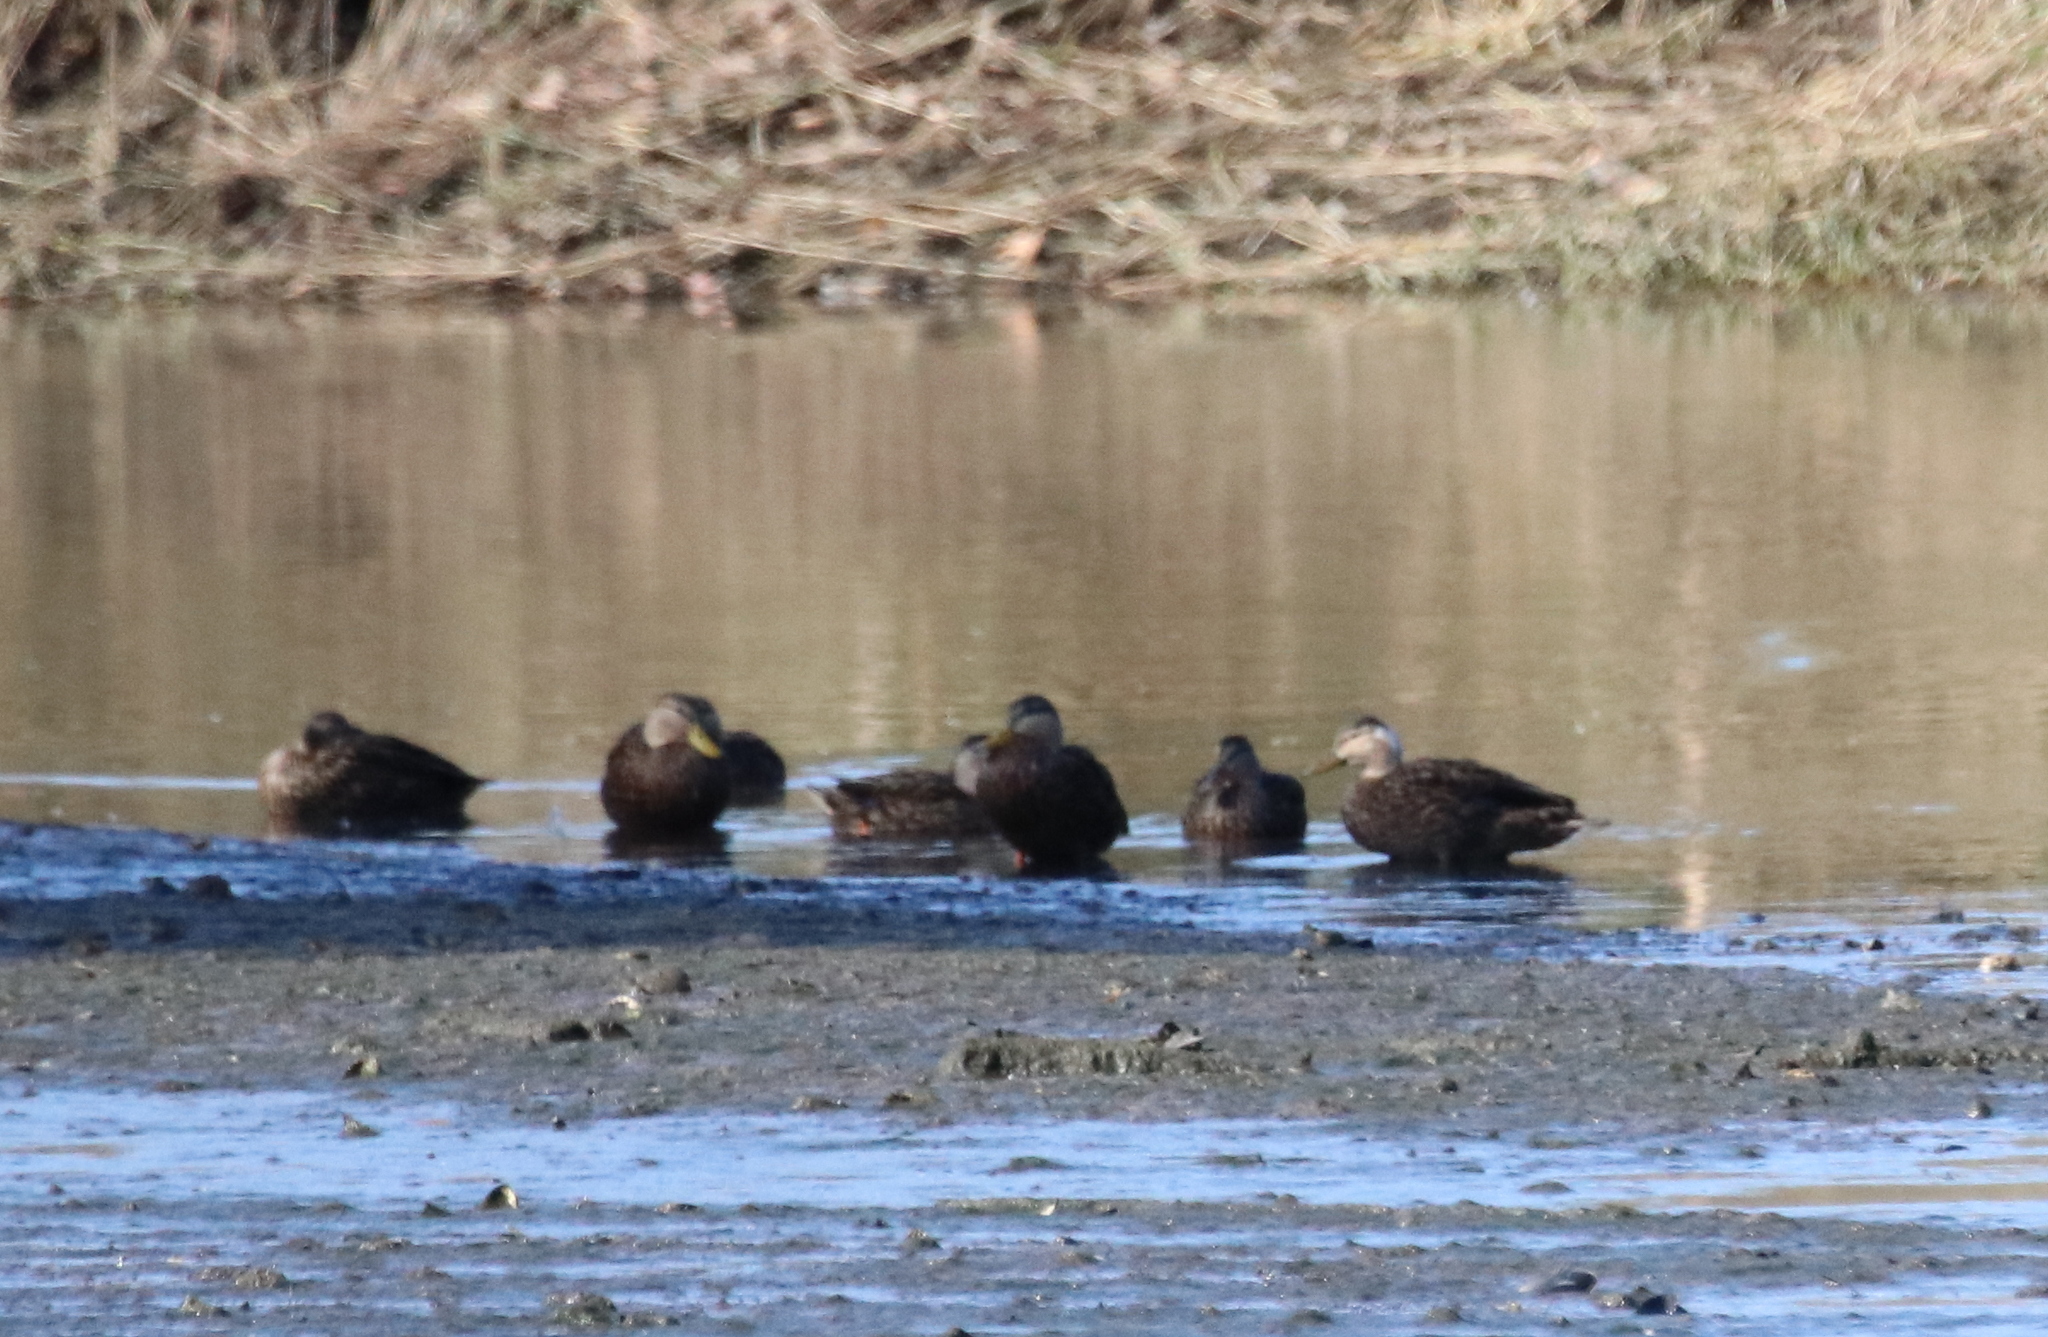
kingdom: Animalia
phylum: Chordata
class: Aves
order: Anseriformes
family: Anatidae
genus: Anas
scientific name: Anas fulvigula
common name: Mottled duck
